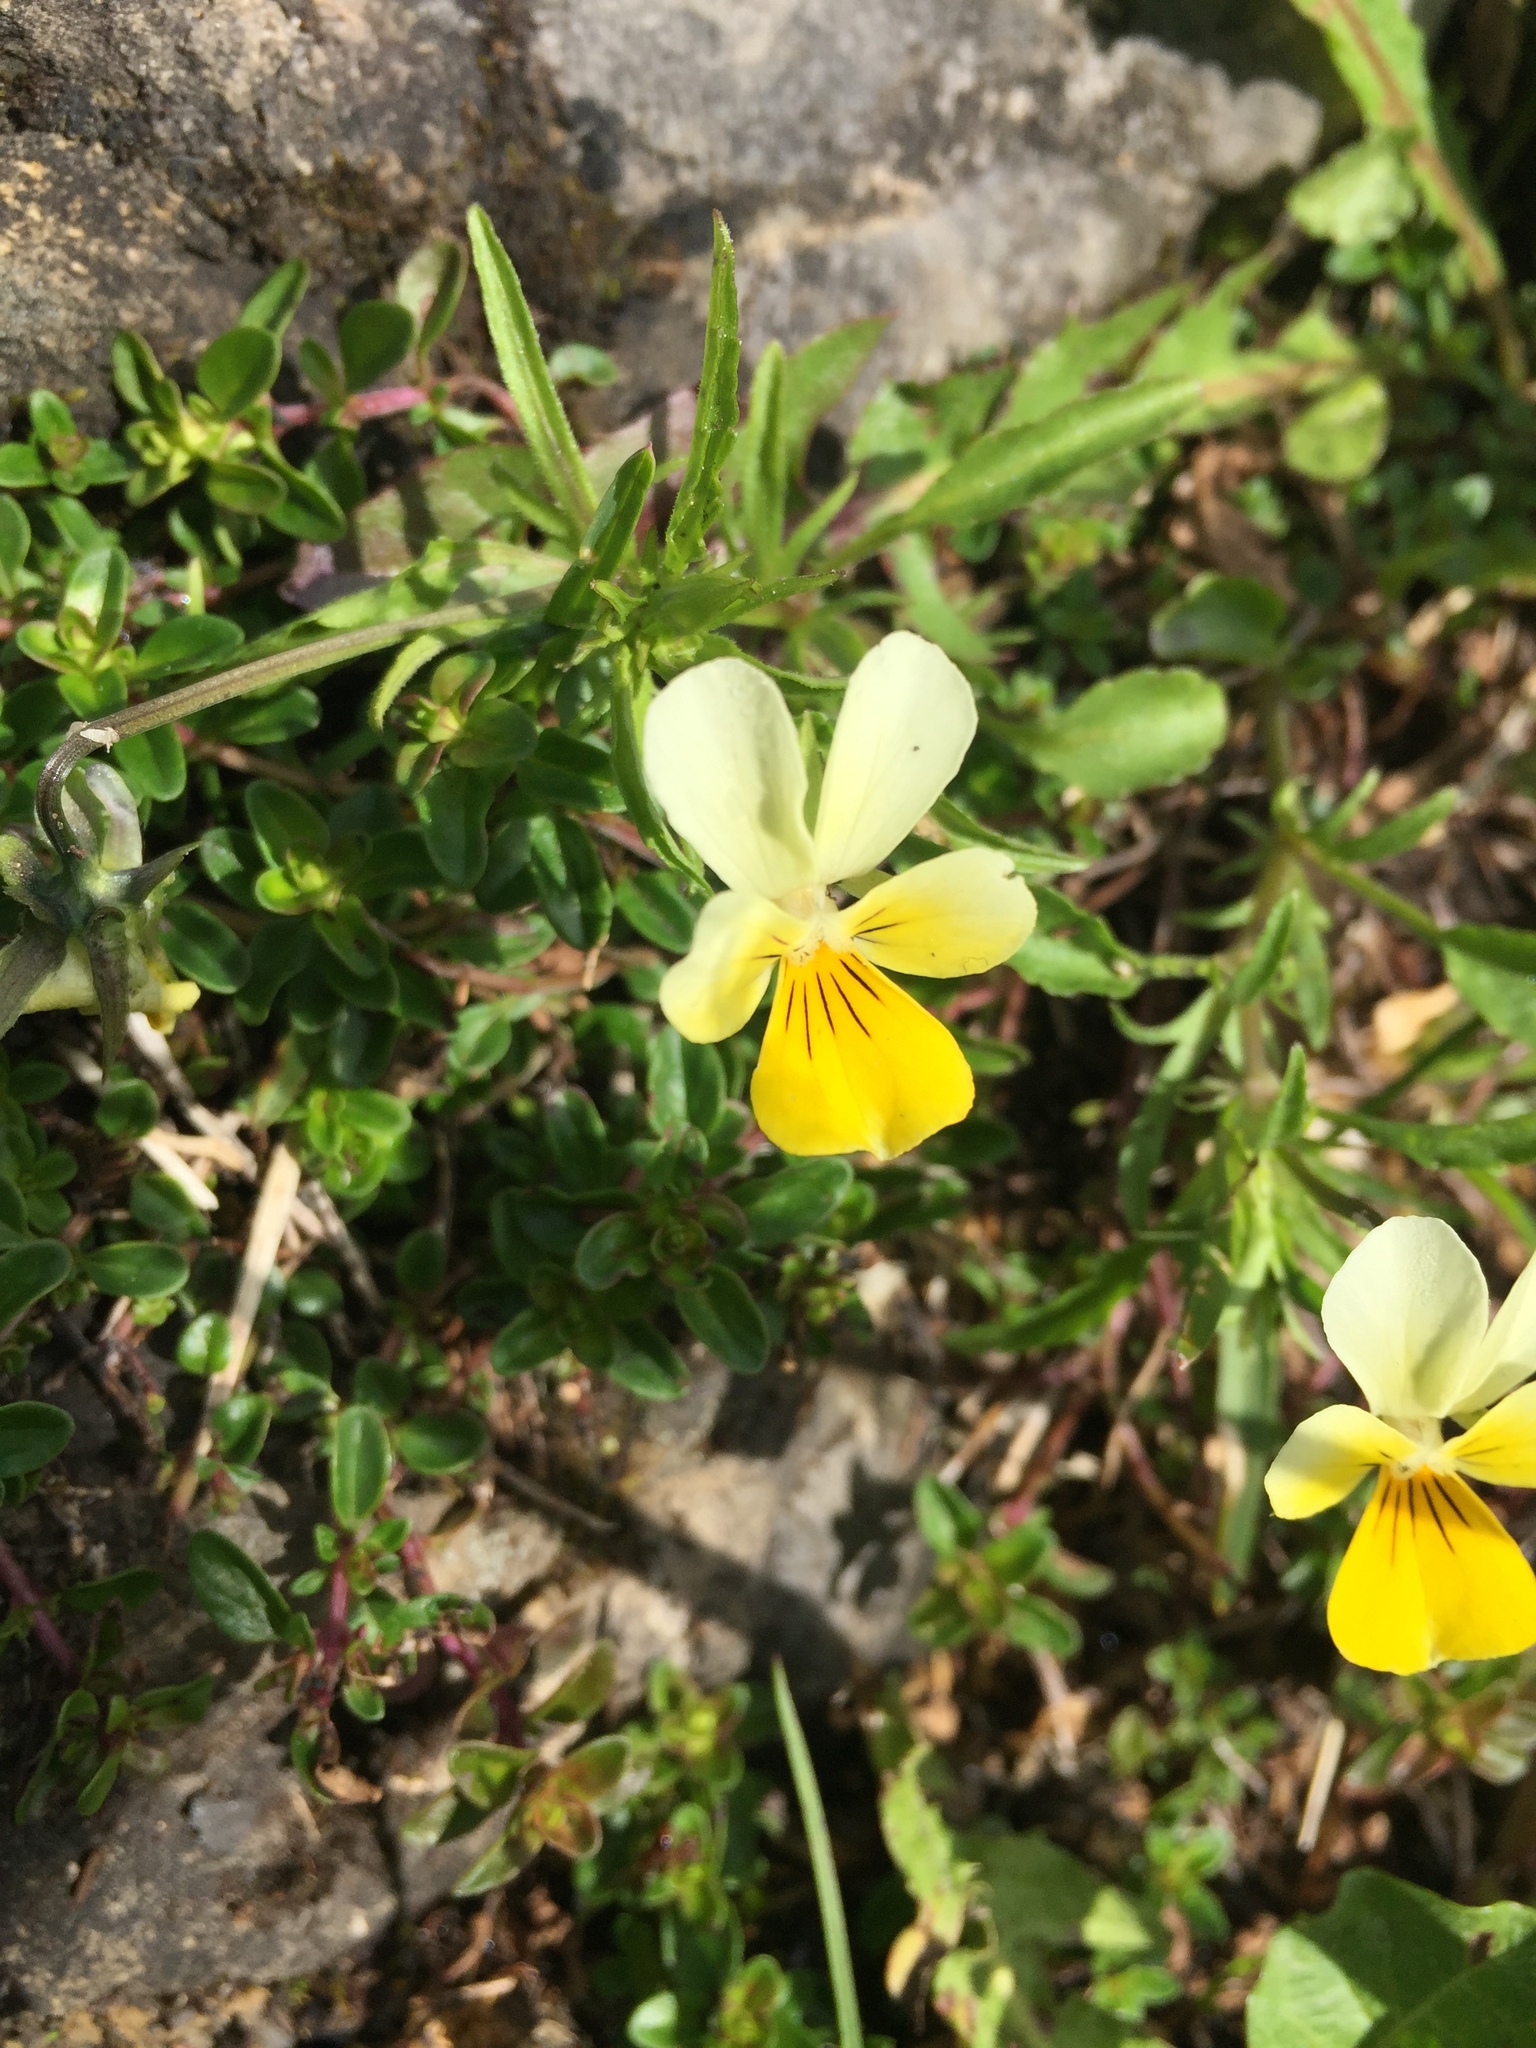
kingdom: Plantae
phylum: Tracheophyta
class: Magnoliopsida
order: Malpighiales
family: Violaceae
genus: Viola
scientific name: Viola tricolor
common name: Pansy
